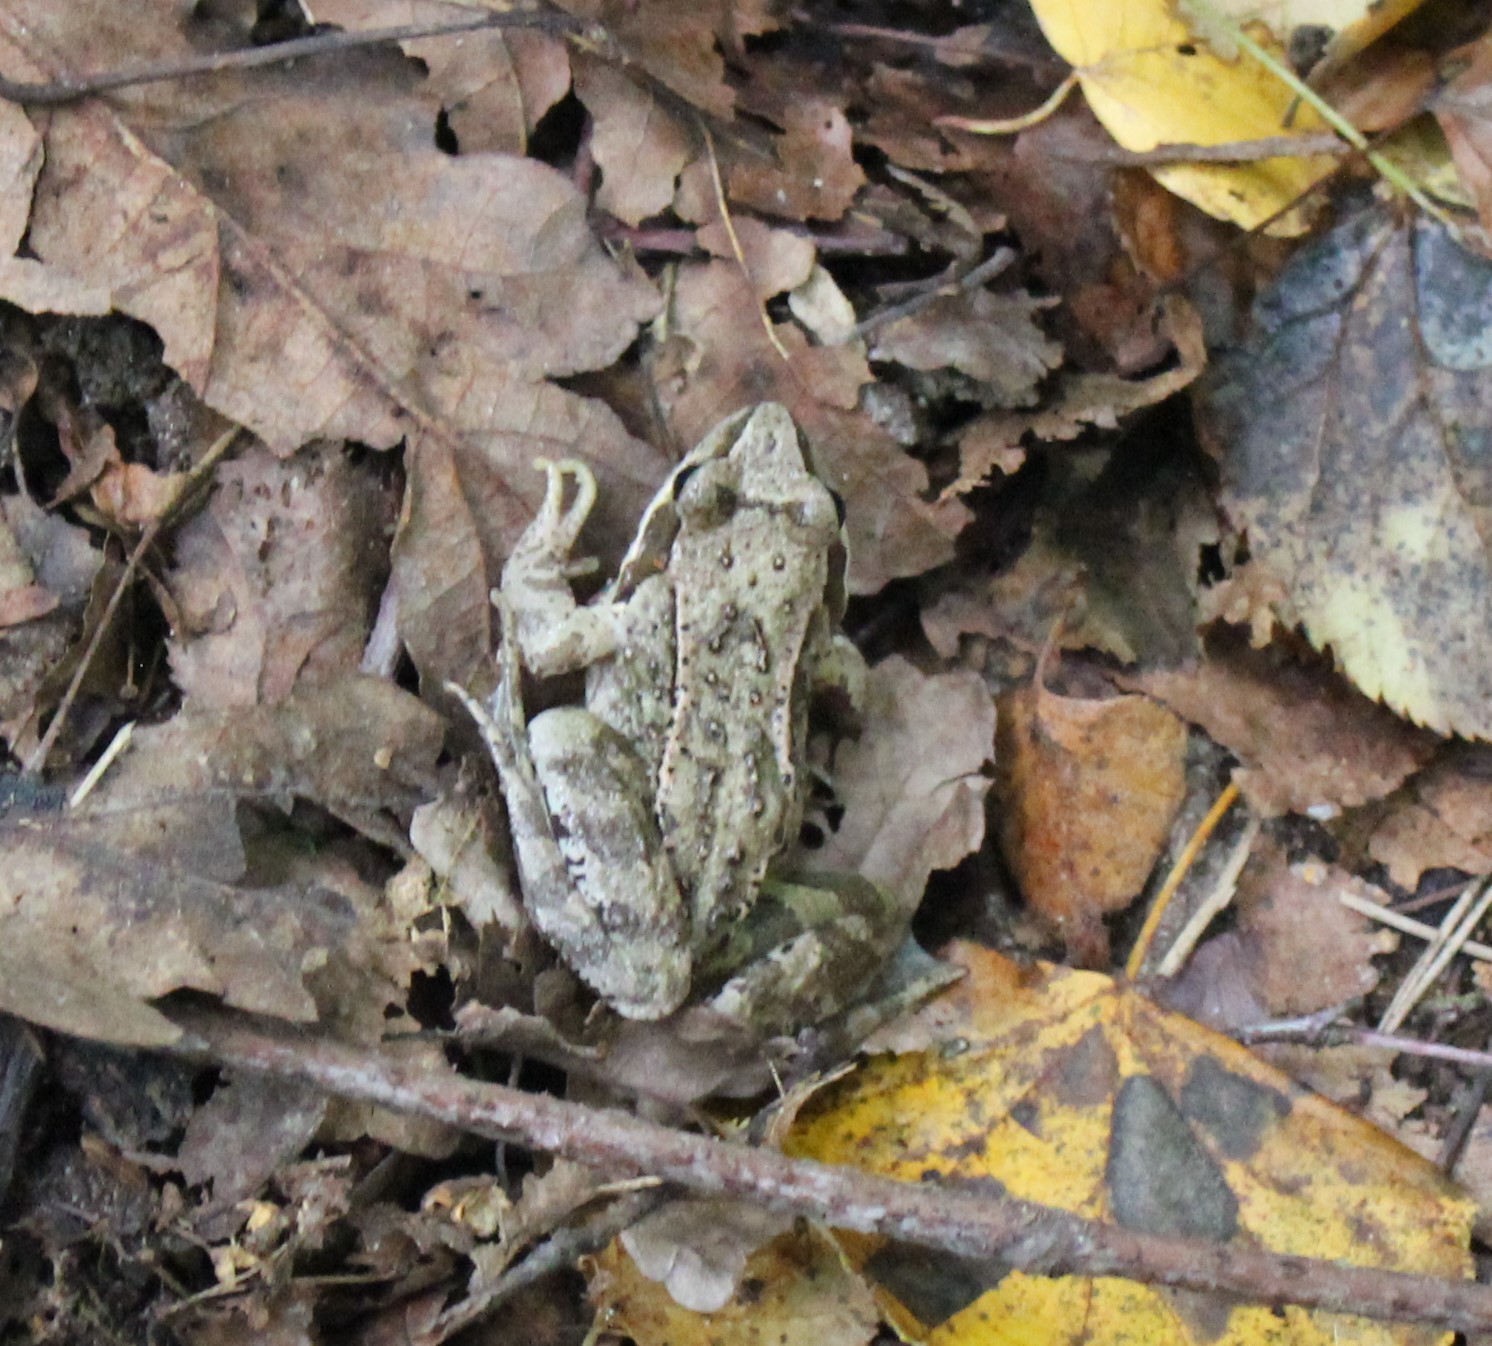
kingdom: Animalia
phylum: Chordata
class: Amphibia
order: Anura
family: Ranidae
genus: Rana
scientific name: Rana temporaria
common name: Common frog
